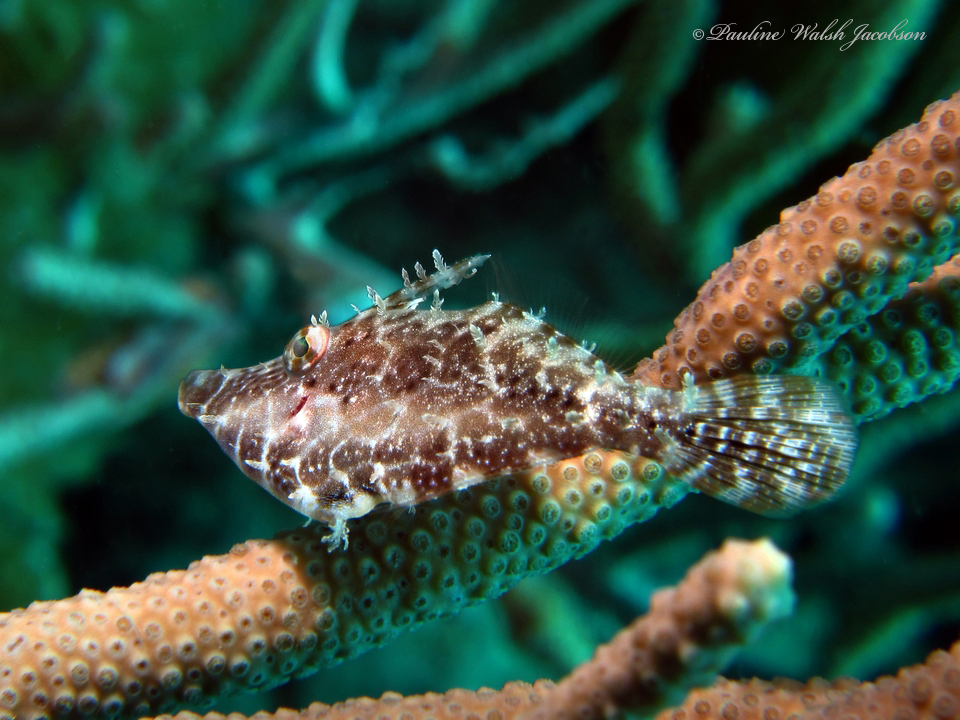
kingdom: Animalia
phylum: Chordata
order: Tetraodontiformes
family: Monacanthidae
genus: Monacanthus
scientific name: Monacanthus tuckeri
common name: Slender filefish
